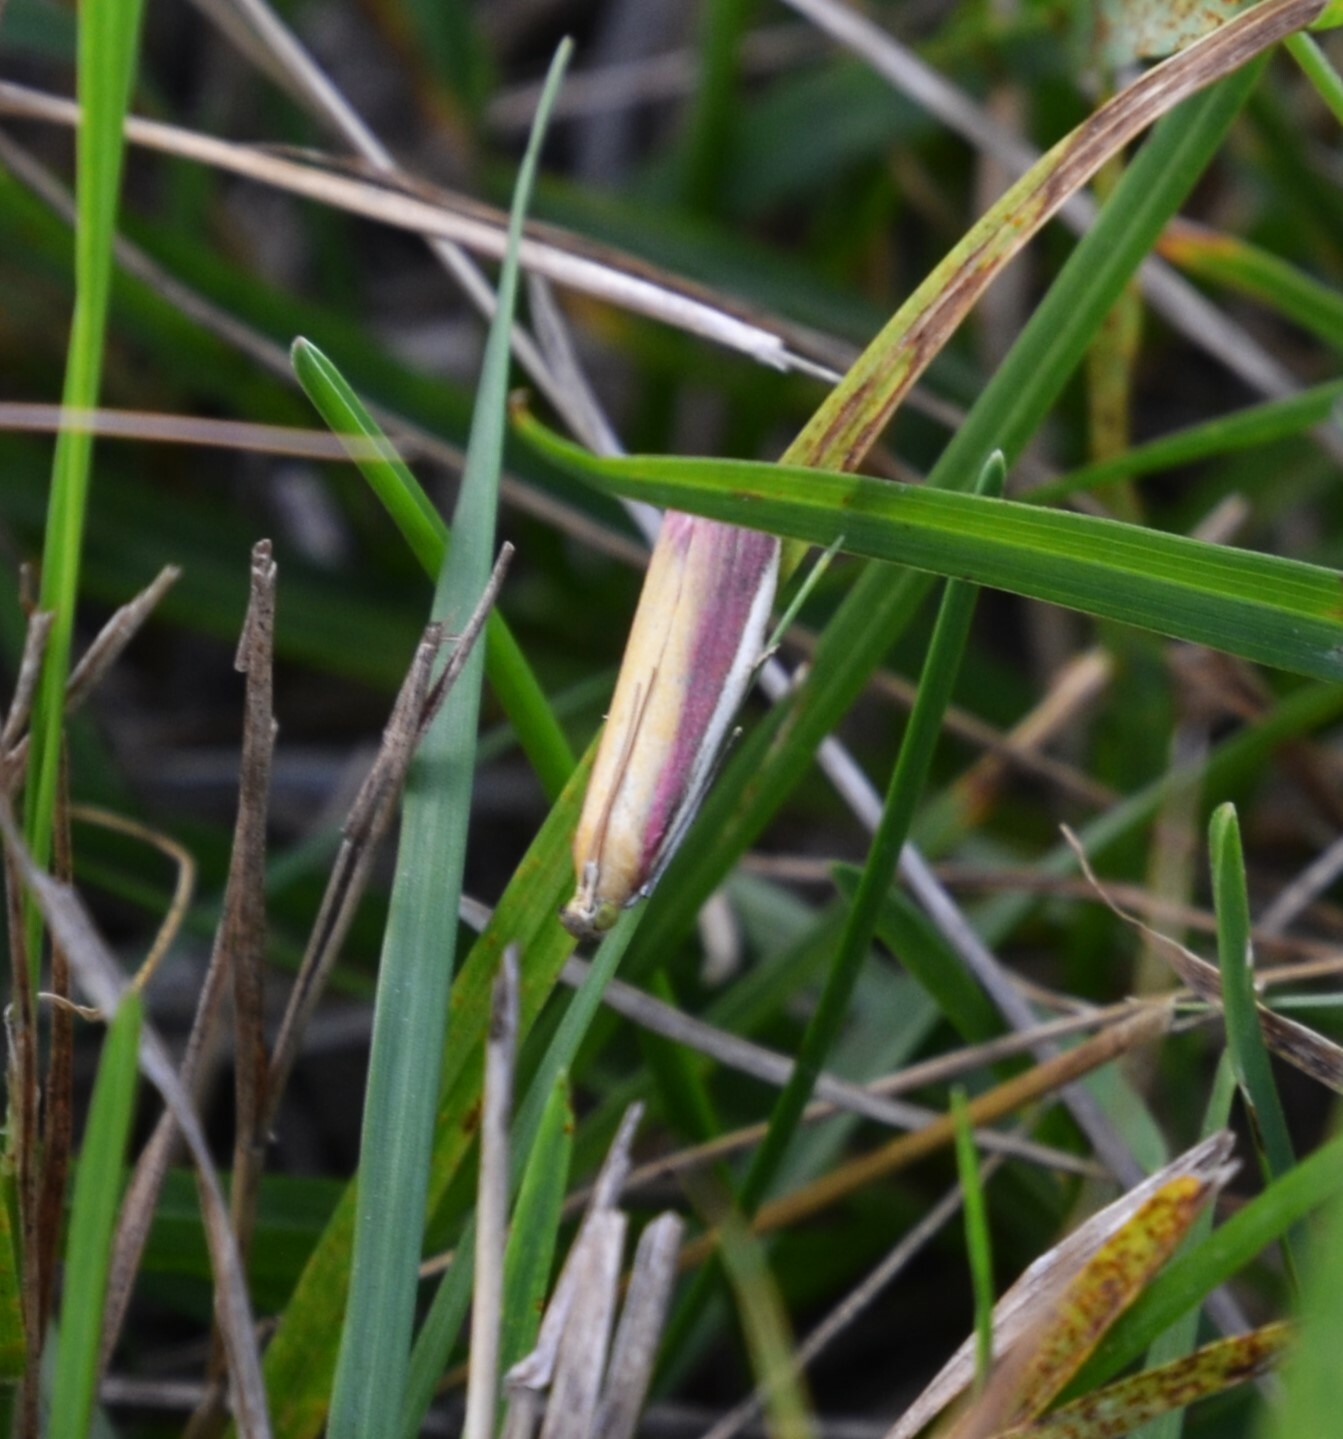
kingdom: Animalia
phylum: Arthropoda
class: Insecta
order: Lepidoptera
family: Pyralidae
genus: Oncocera
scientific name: Oncocera semirubella
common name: Rosy-striped knot-horn
